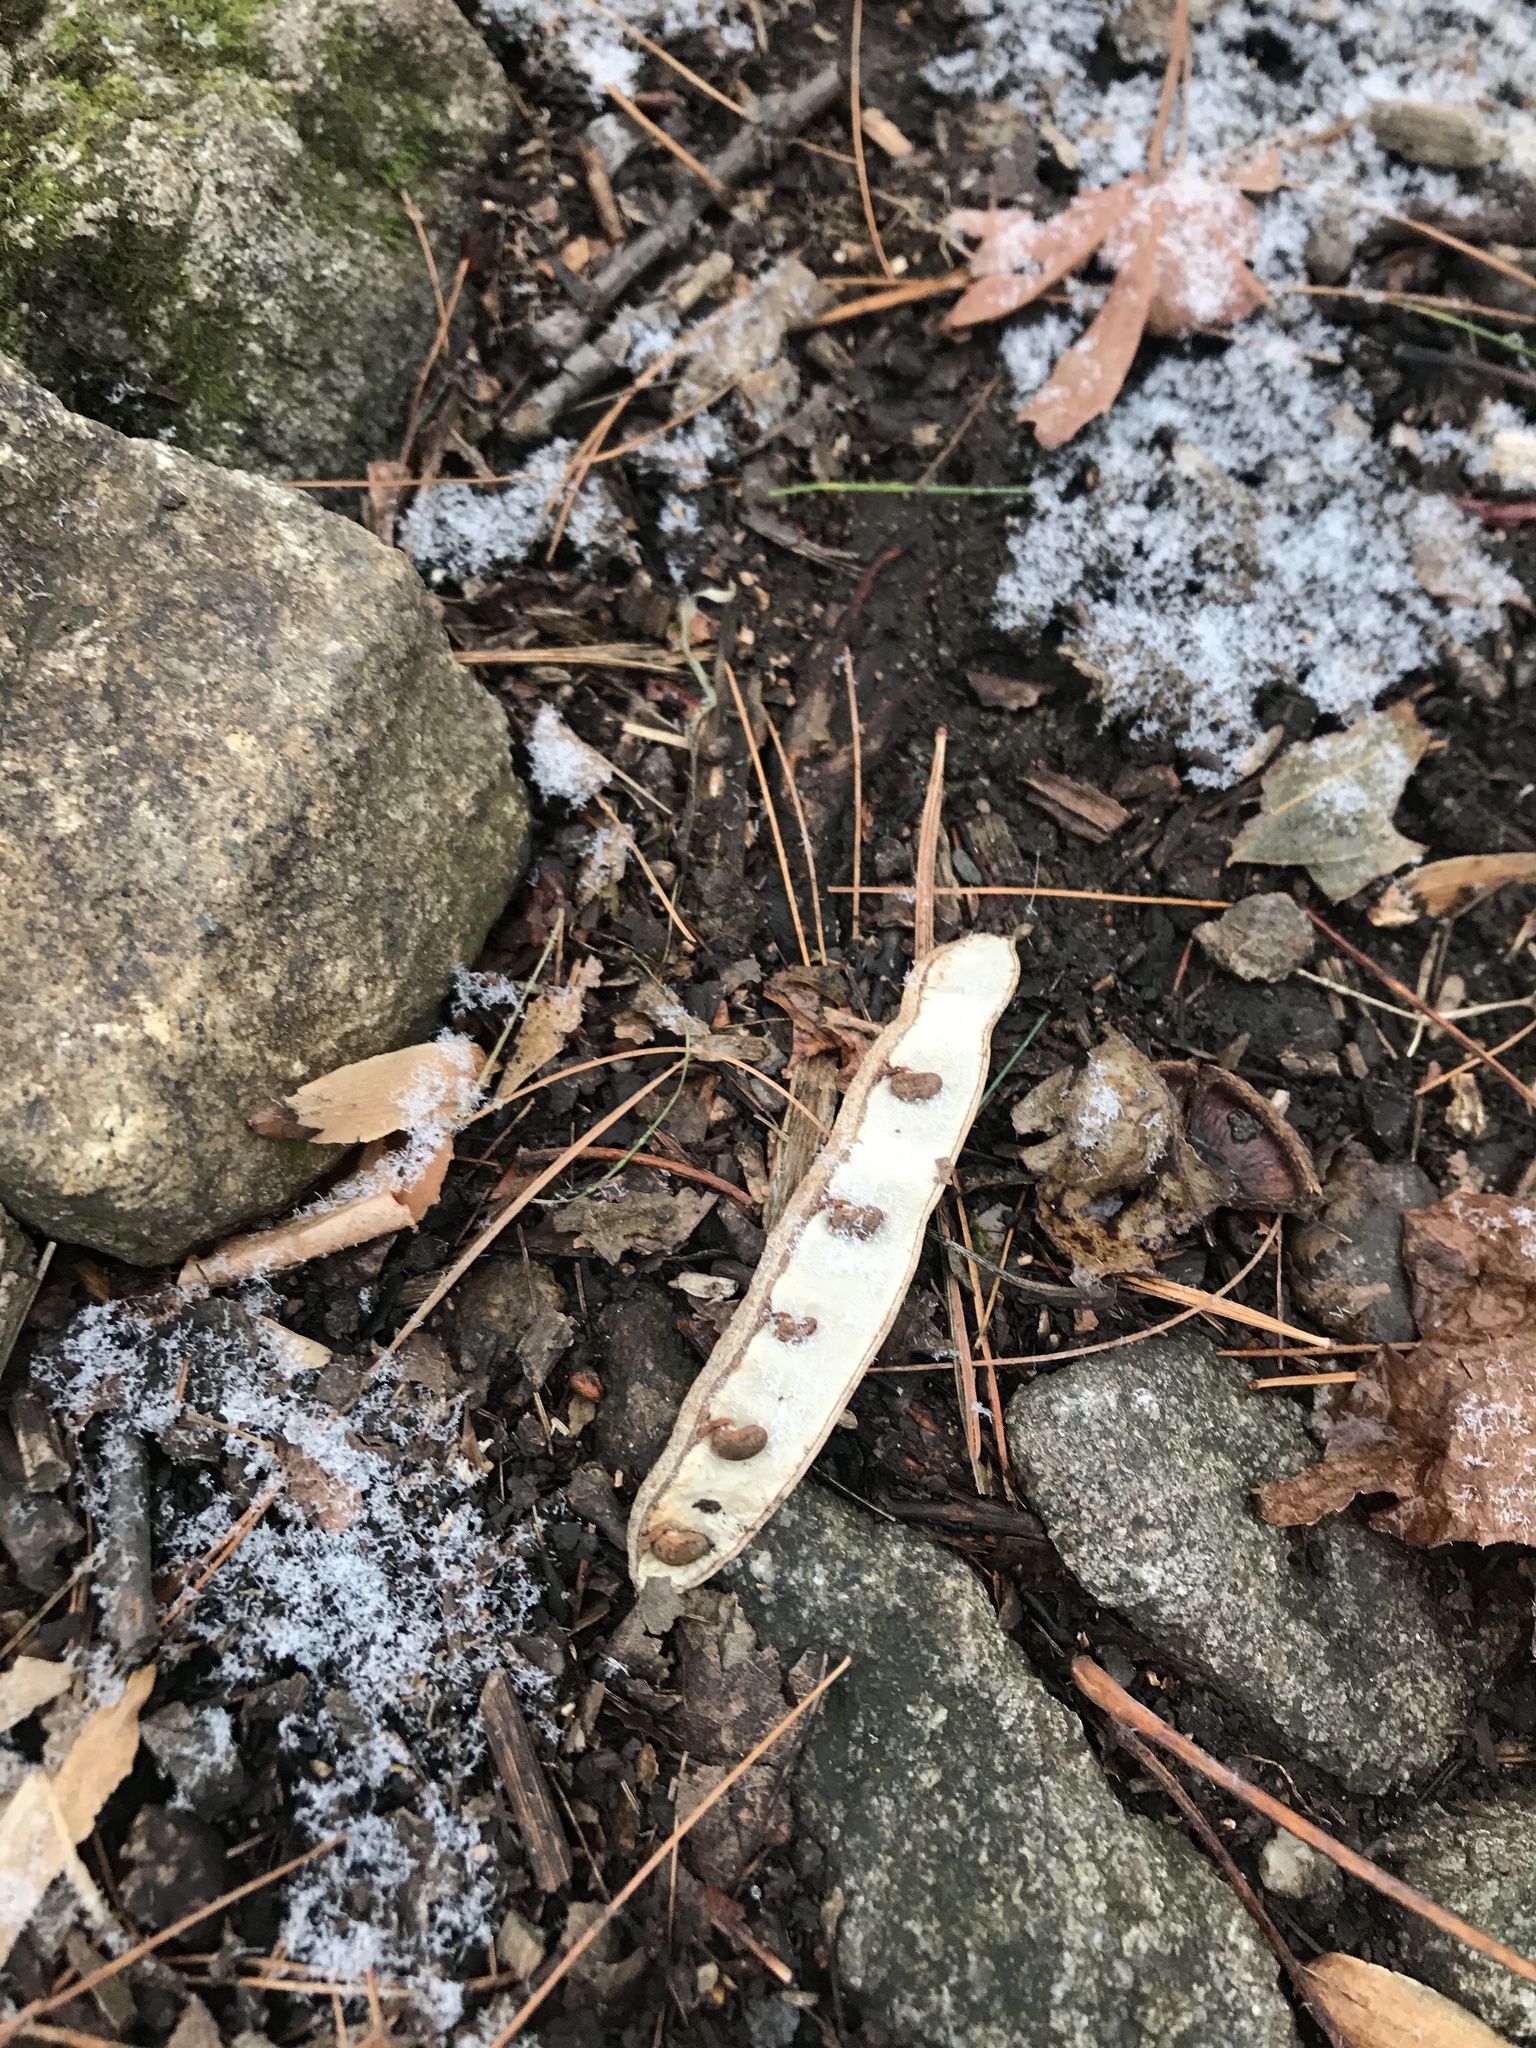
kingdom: Plantae
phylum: Tracheophyta
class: Magnoliopsida
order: Fabales
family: Fabaceae
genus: Robinia
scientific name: Robinia pseudoacacia
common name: Black locust
